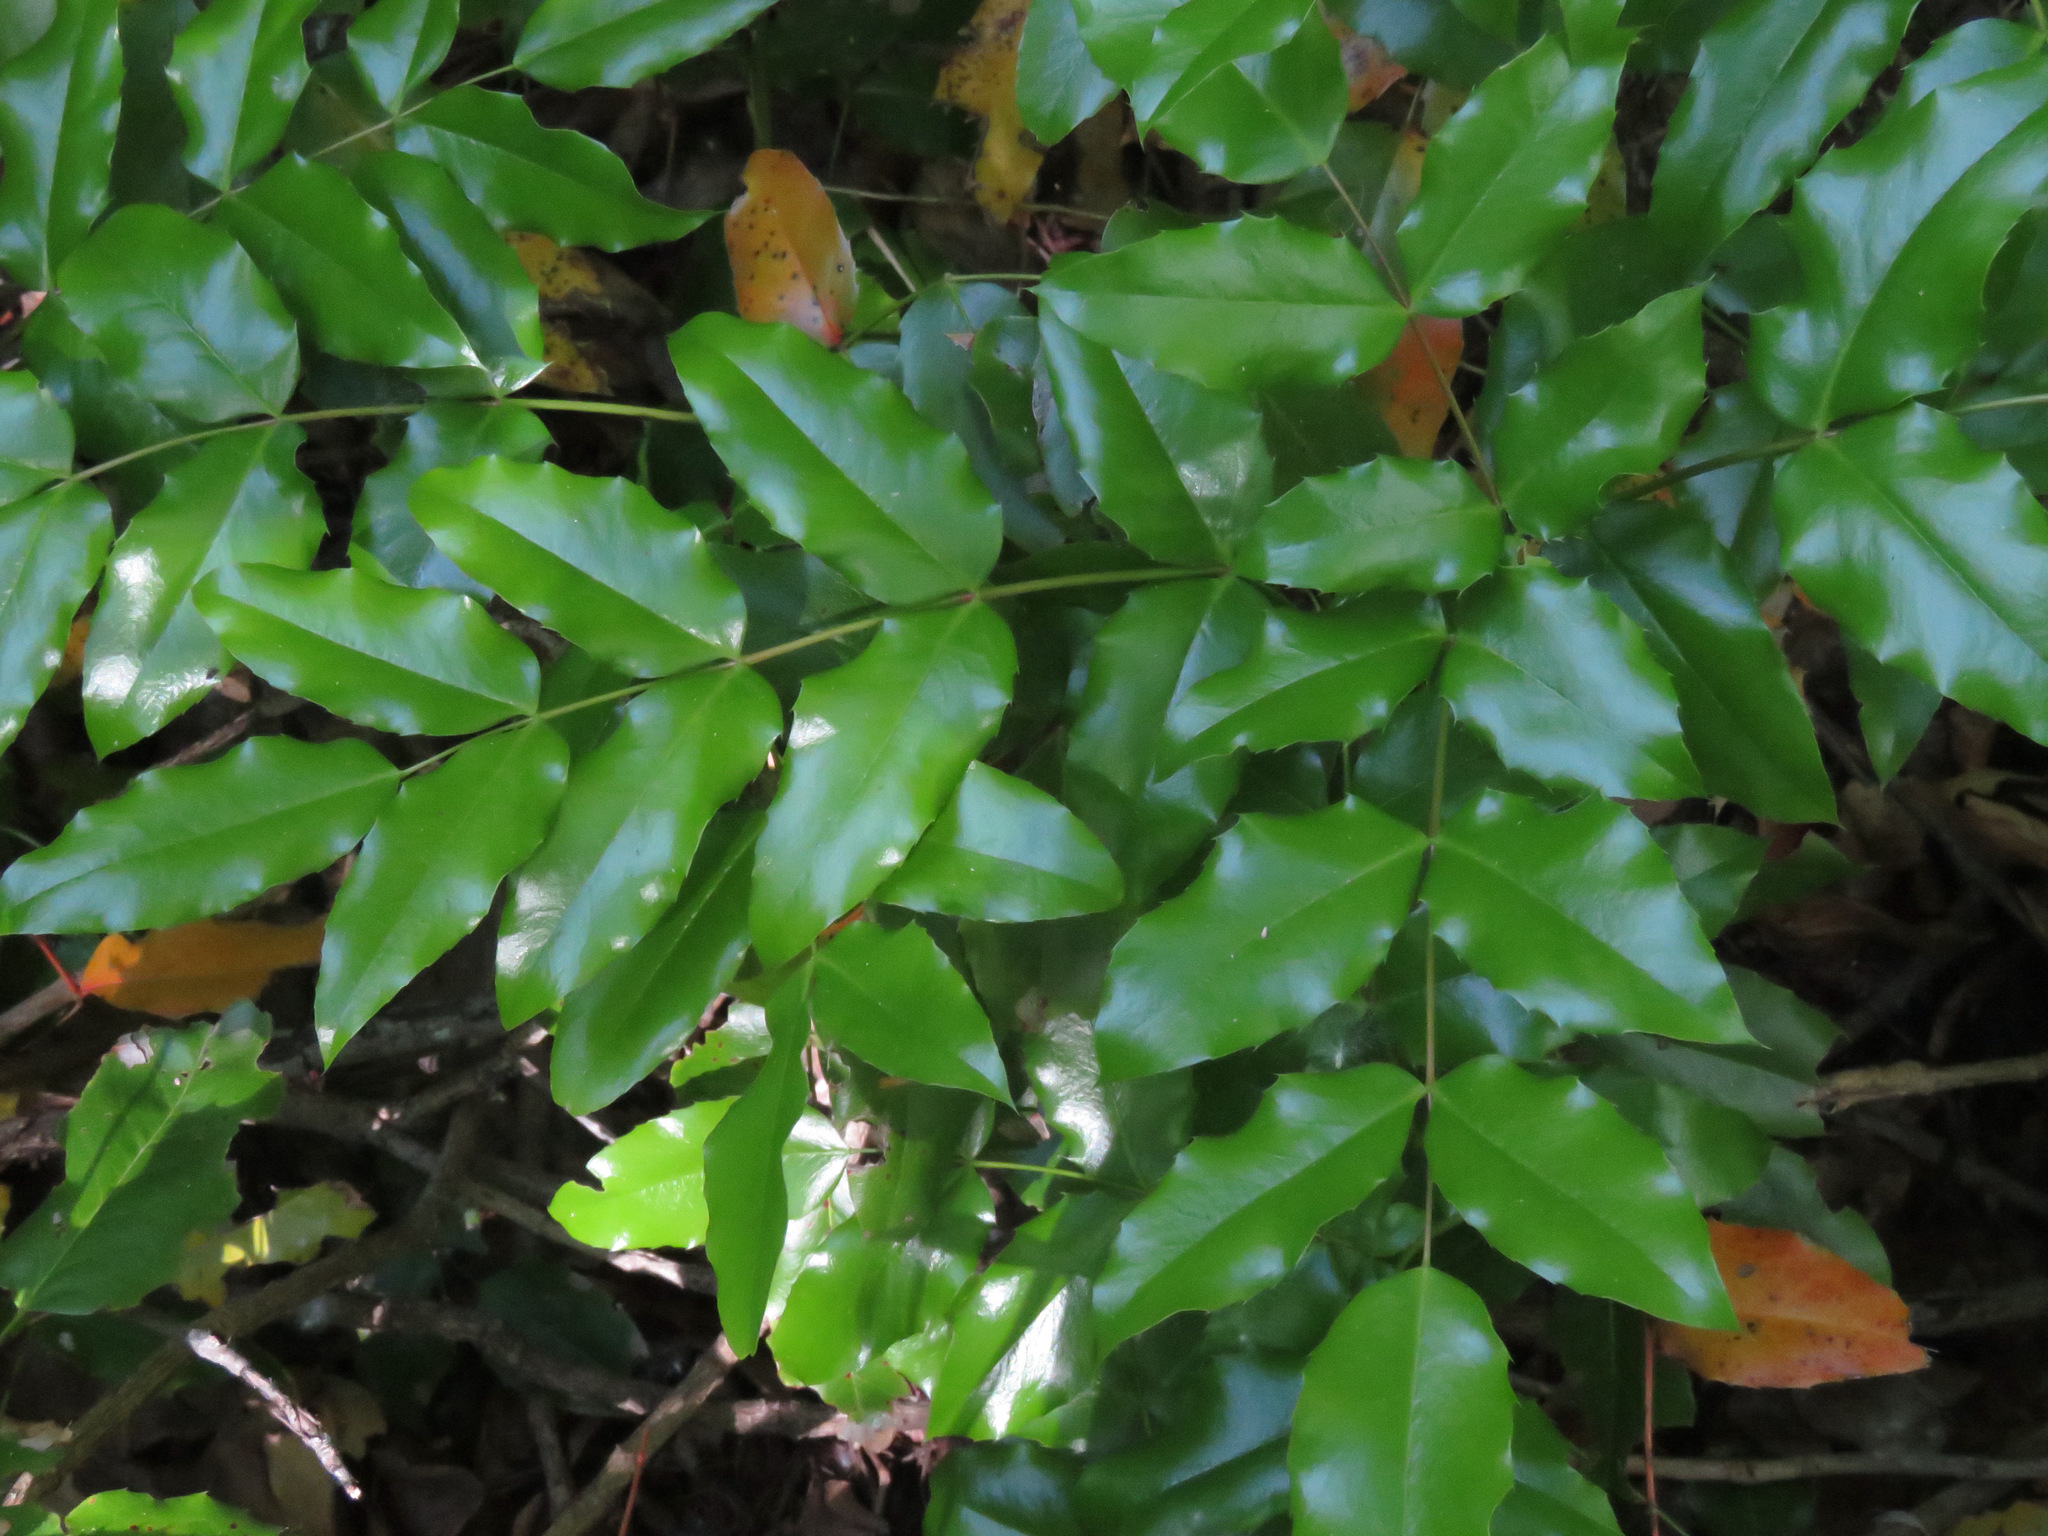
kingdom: Plantae
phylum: Tracheophyta
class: Magnoliopsida
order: Ranunculales
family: Berberidaceae
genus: Mahonia
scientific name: Mahonia aquifolium
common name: Oregon-grape
